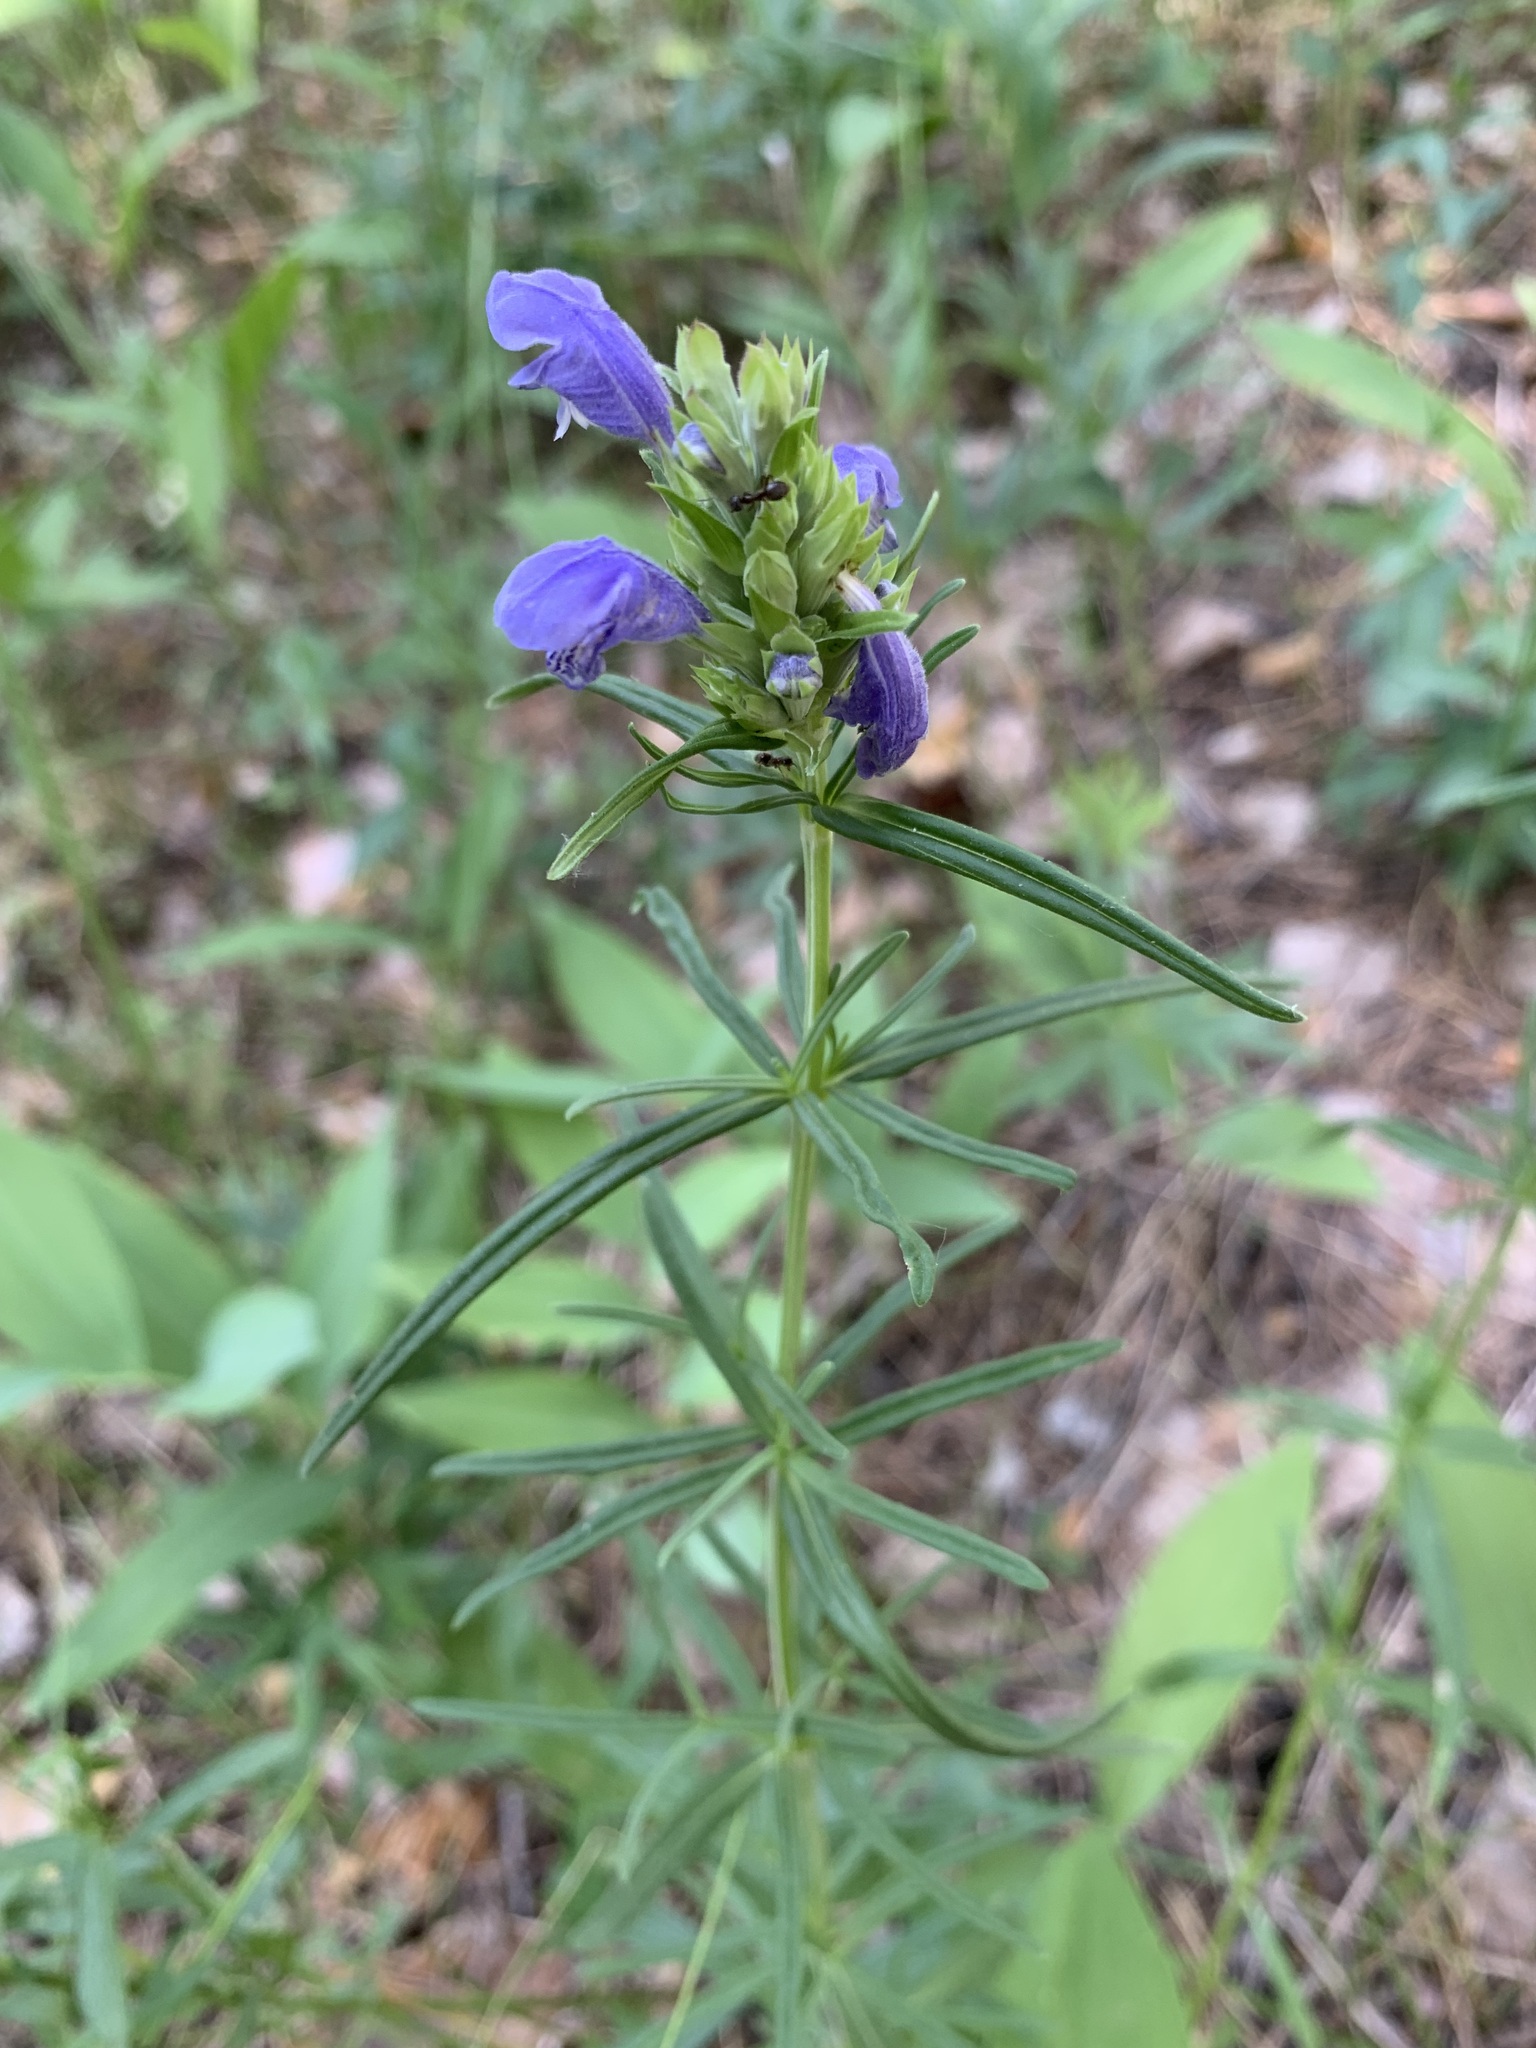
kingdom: Plantae
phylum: Tracheophyta
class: Magnoliopsida
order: Lamiales
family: Lamiaceae
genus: Dracocephalum
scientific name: Dracocephalum ruyschiana
